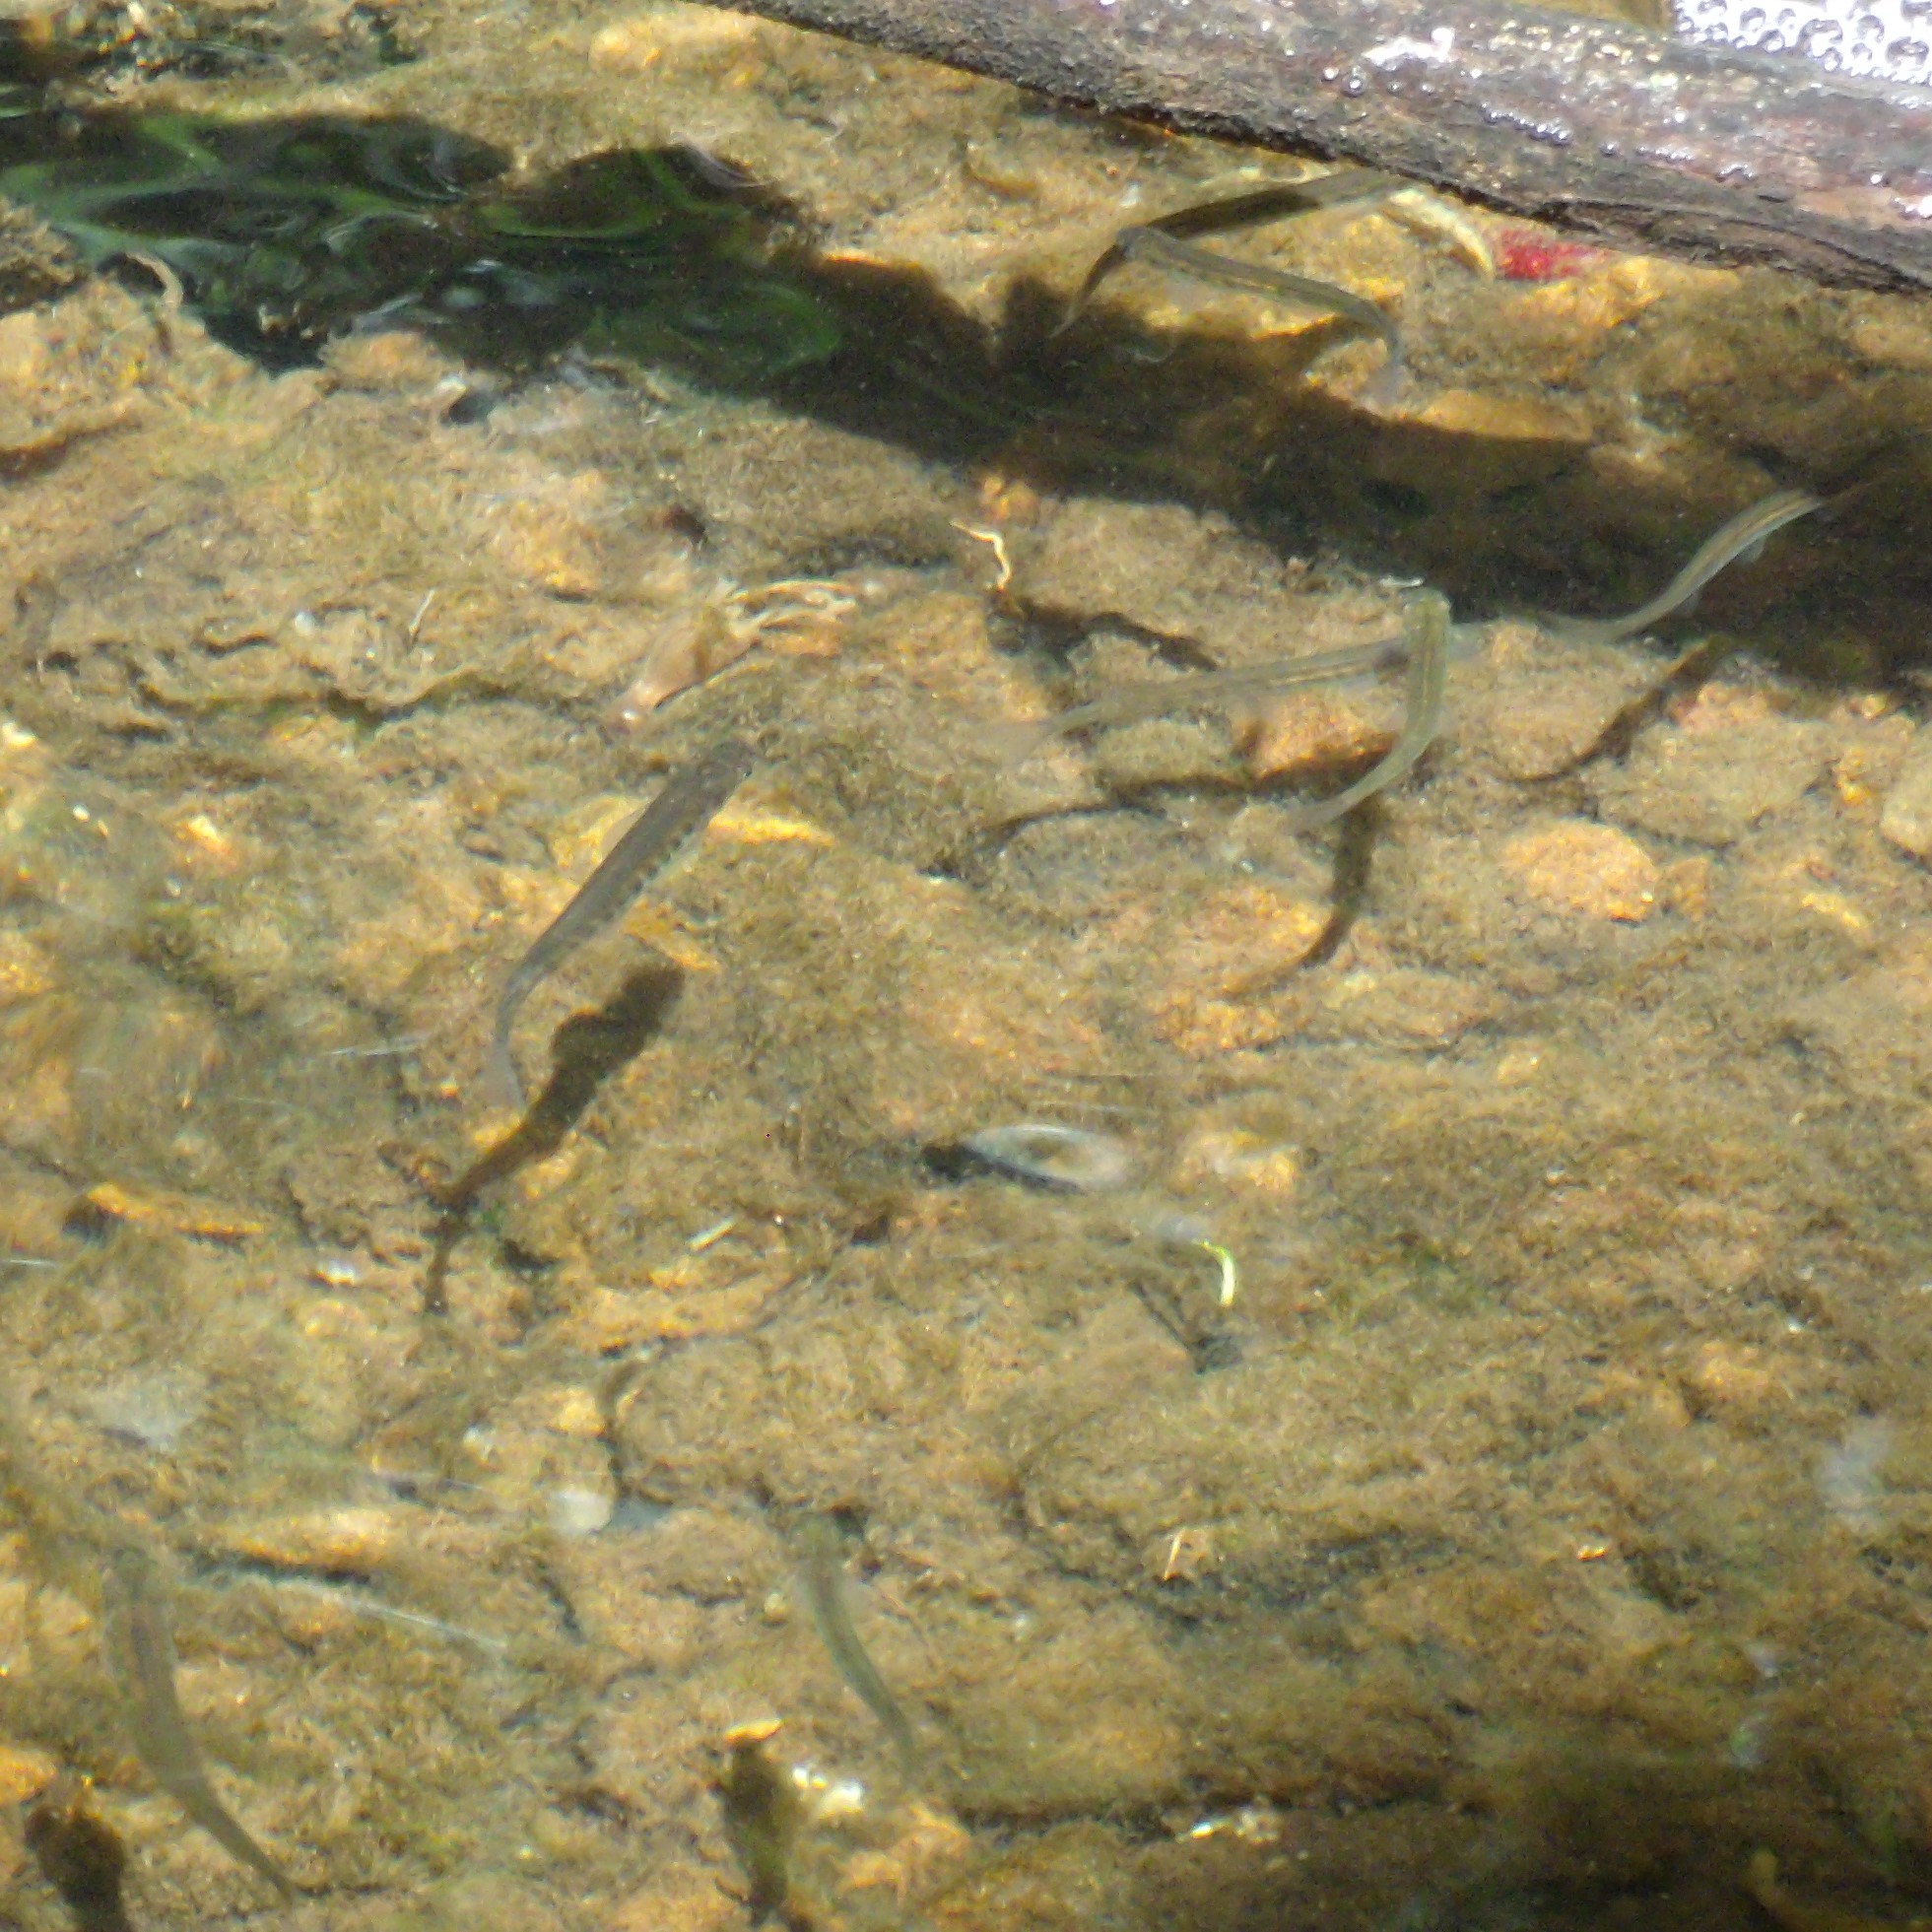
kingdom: Animalia
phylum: Chordata
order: Osmeriformes
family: Galaxiidae
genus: Galaxias
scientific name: Galaxias fasciatus
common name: Banded kokopu
